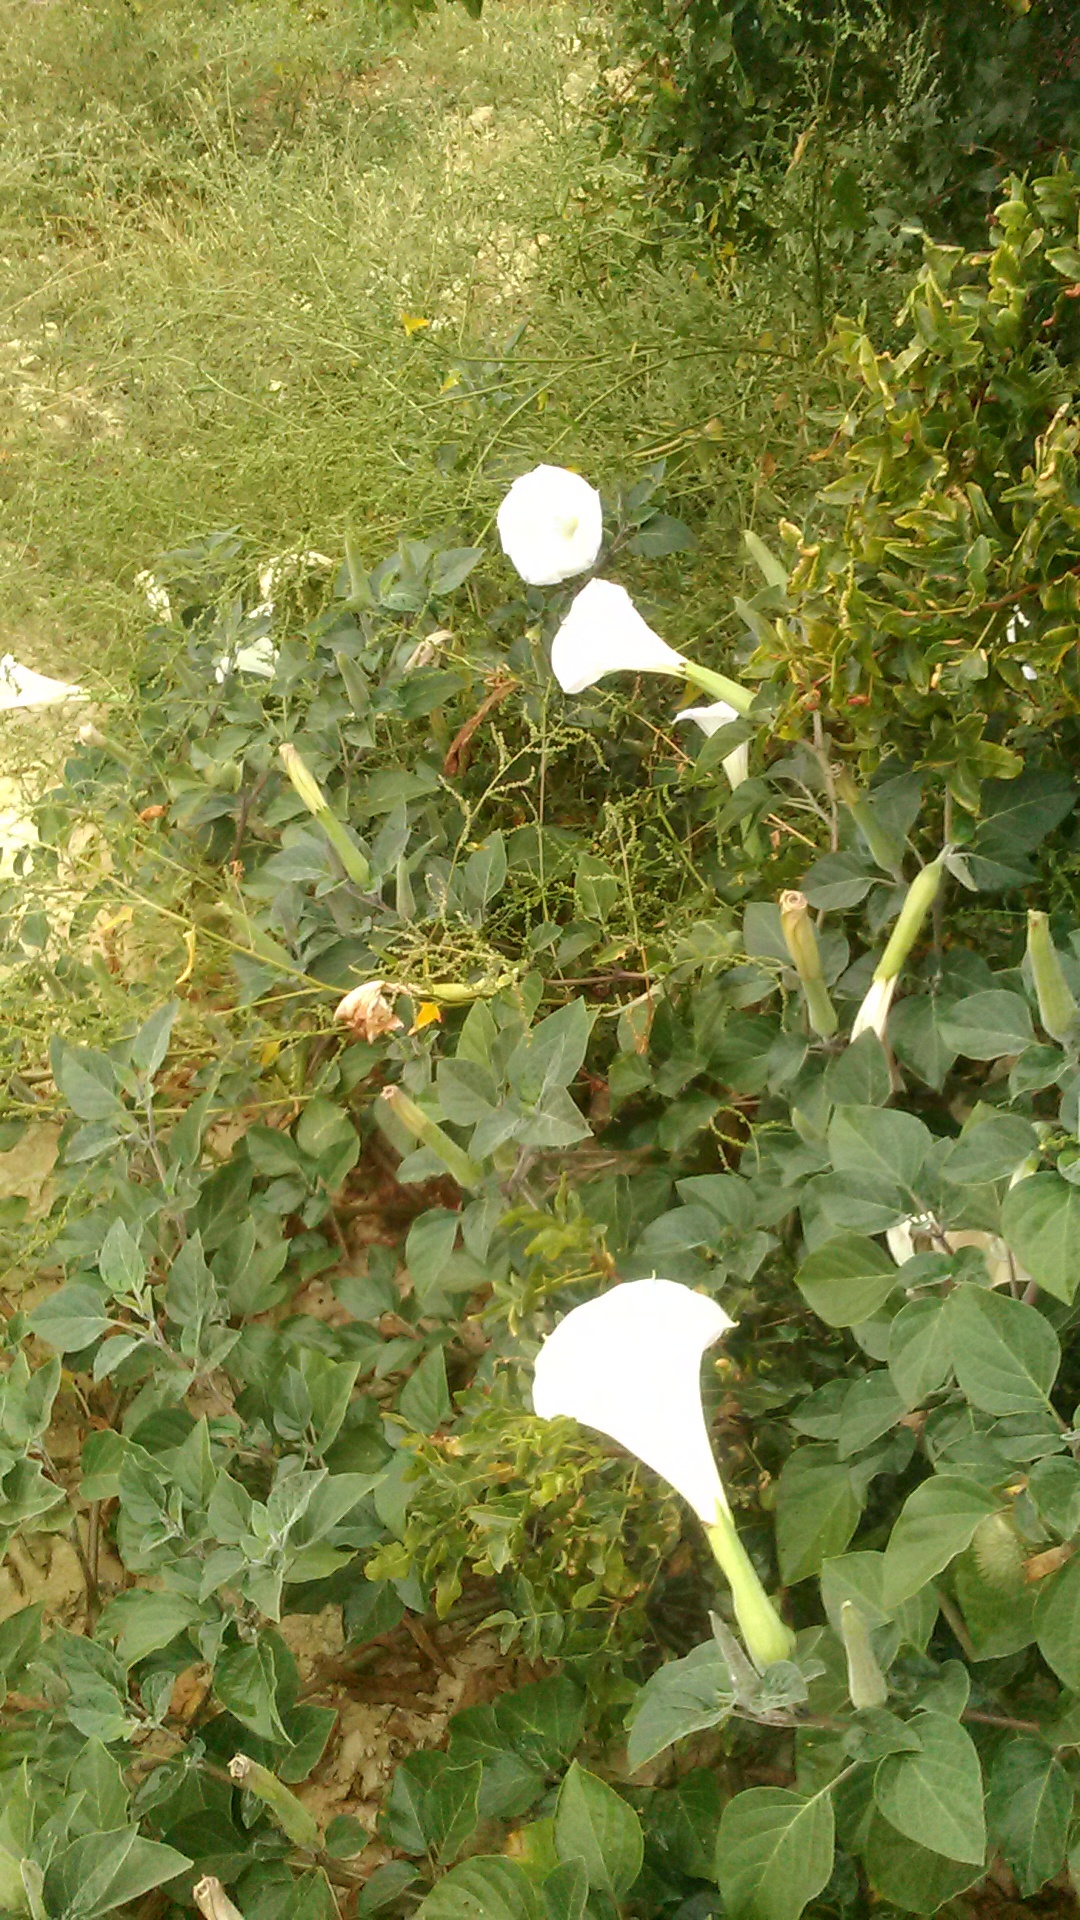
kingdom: Plantae
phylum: Tracheophyta
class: Magnoliopsida
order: Solanales
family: Solanaceae
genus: Datura
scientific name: Datura innoxia
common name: Downy thorn-apple
